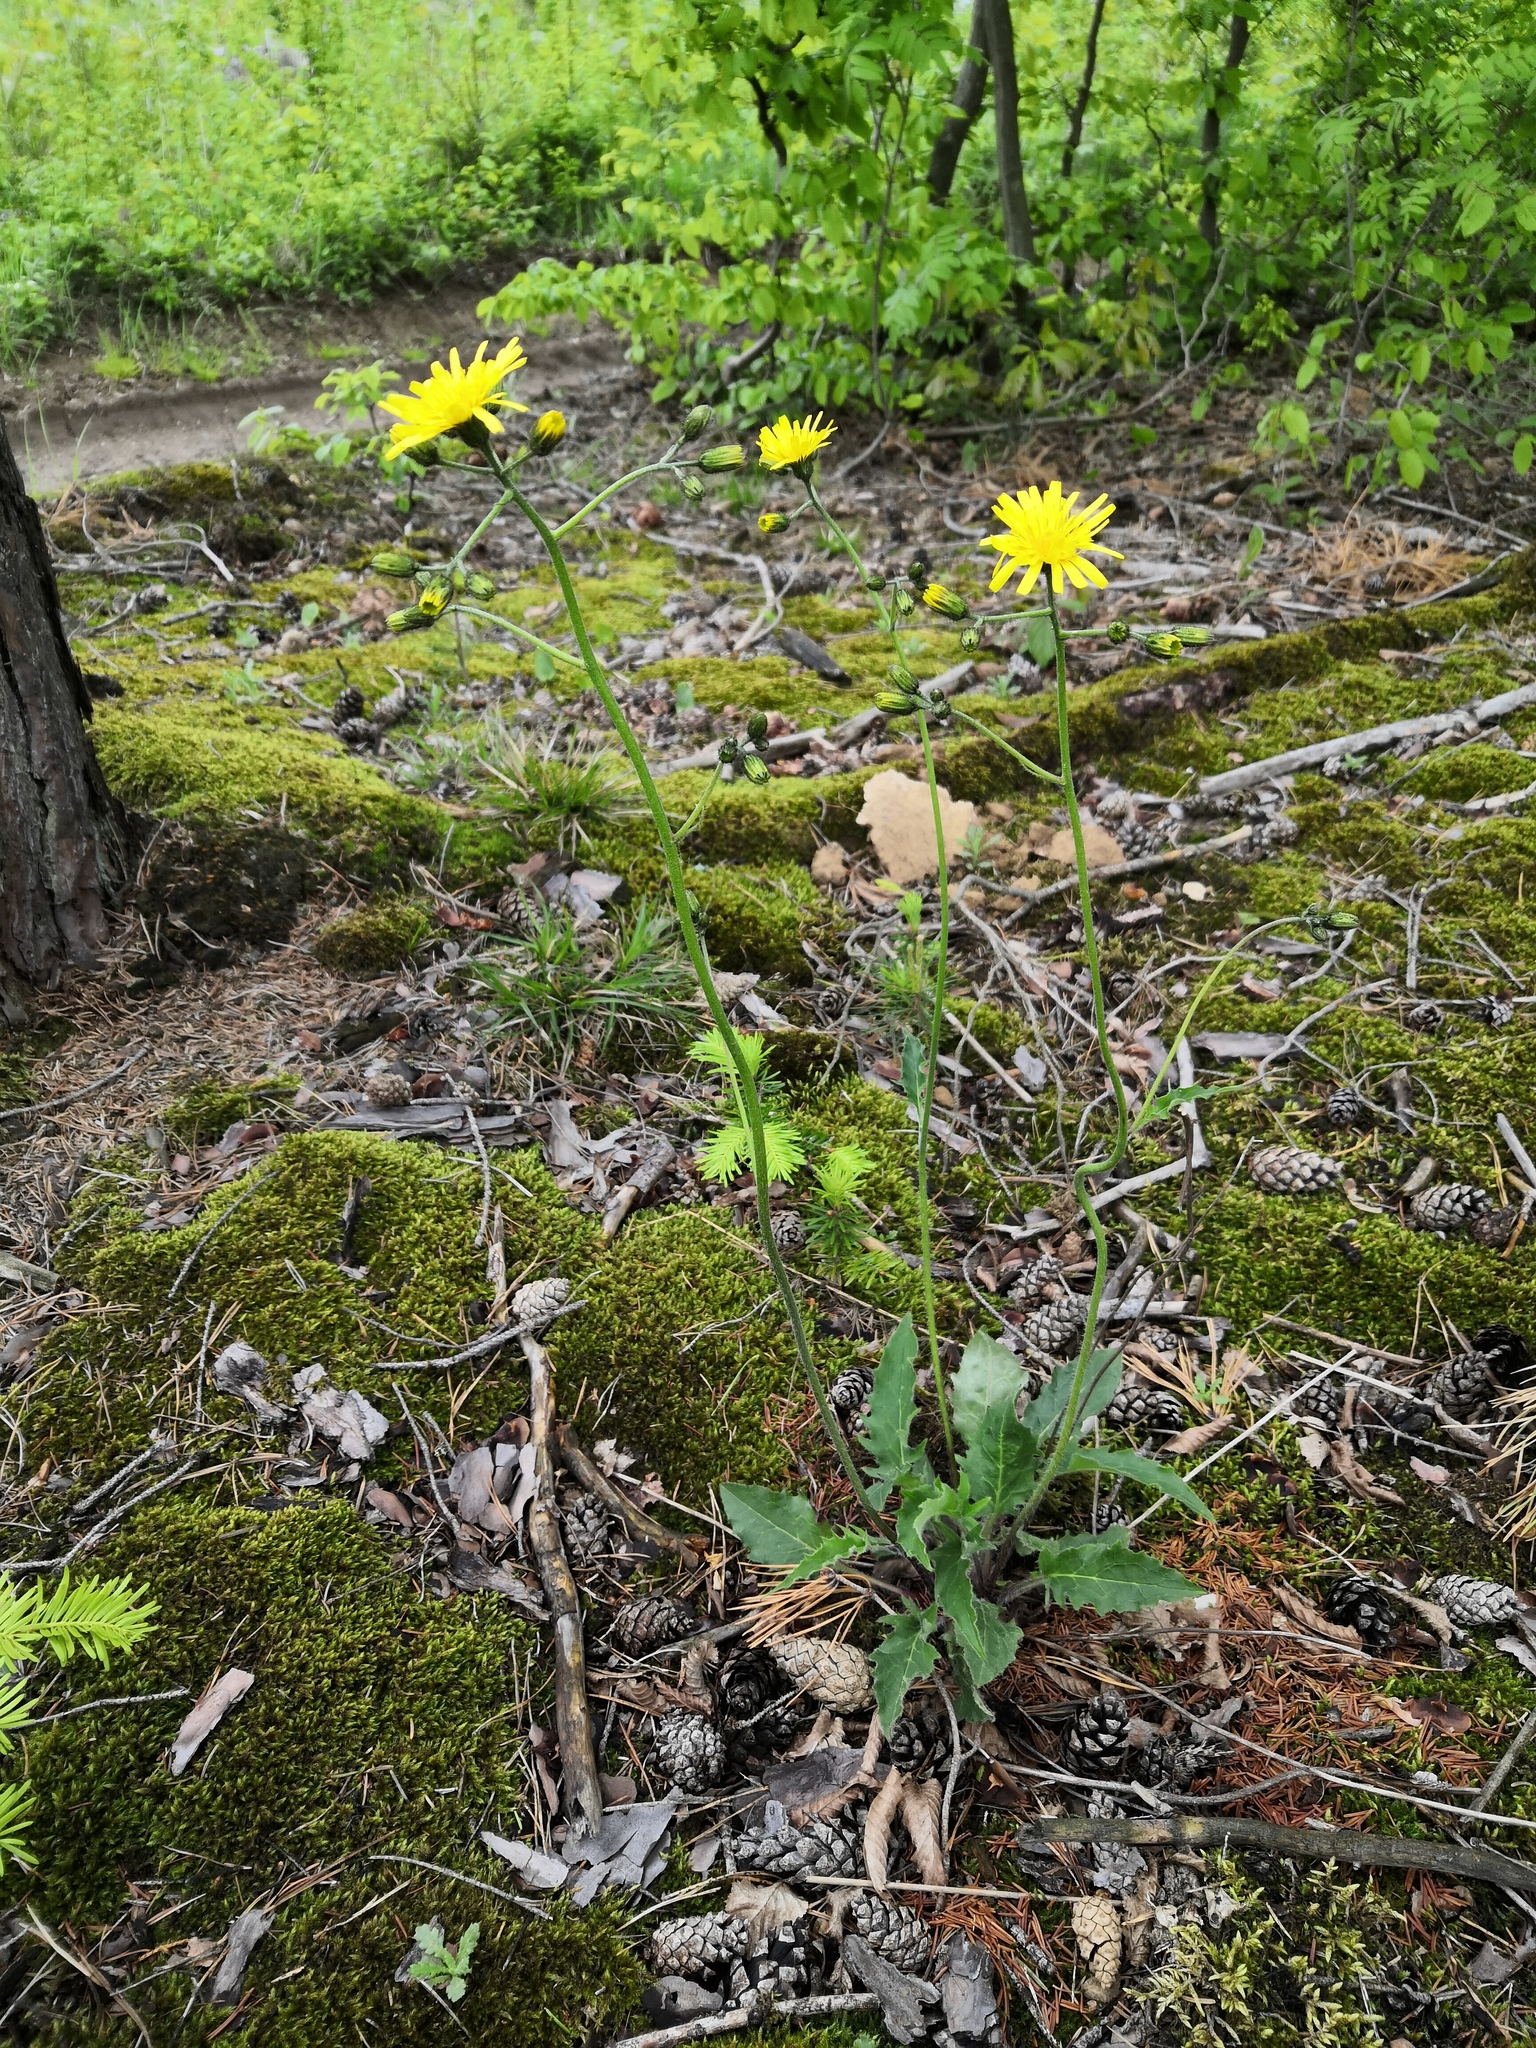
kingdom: Plantae
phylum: Tracheophyta
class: Magnoliopsida
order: Asterales
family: Asteraceae
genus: Hieracium
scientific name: Hieracium murorum
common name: Wall hawkweed
